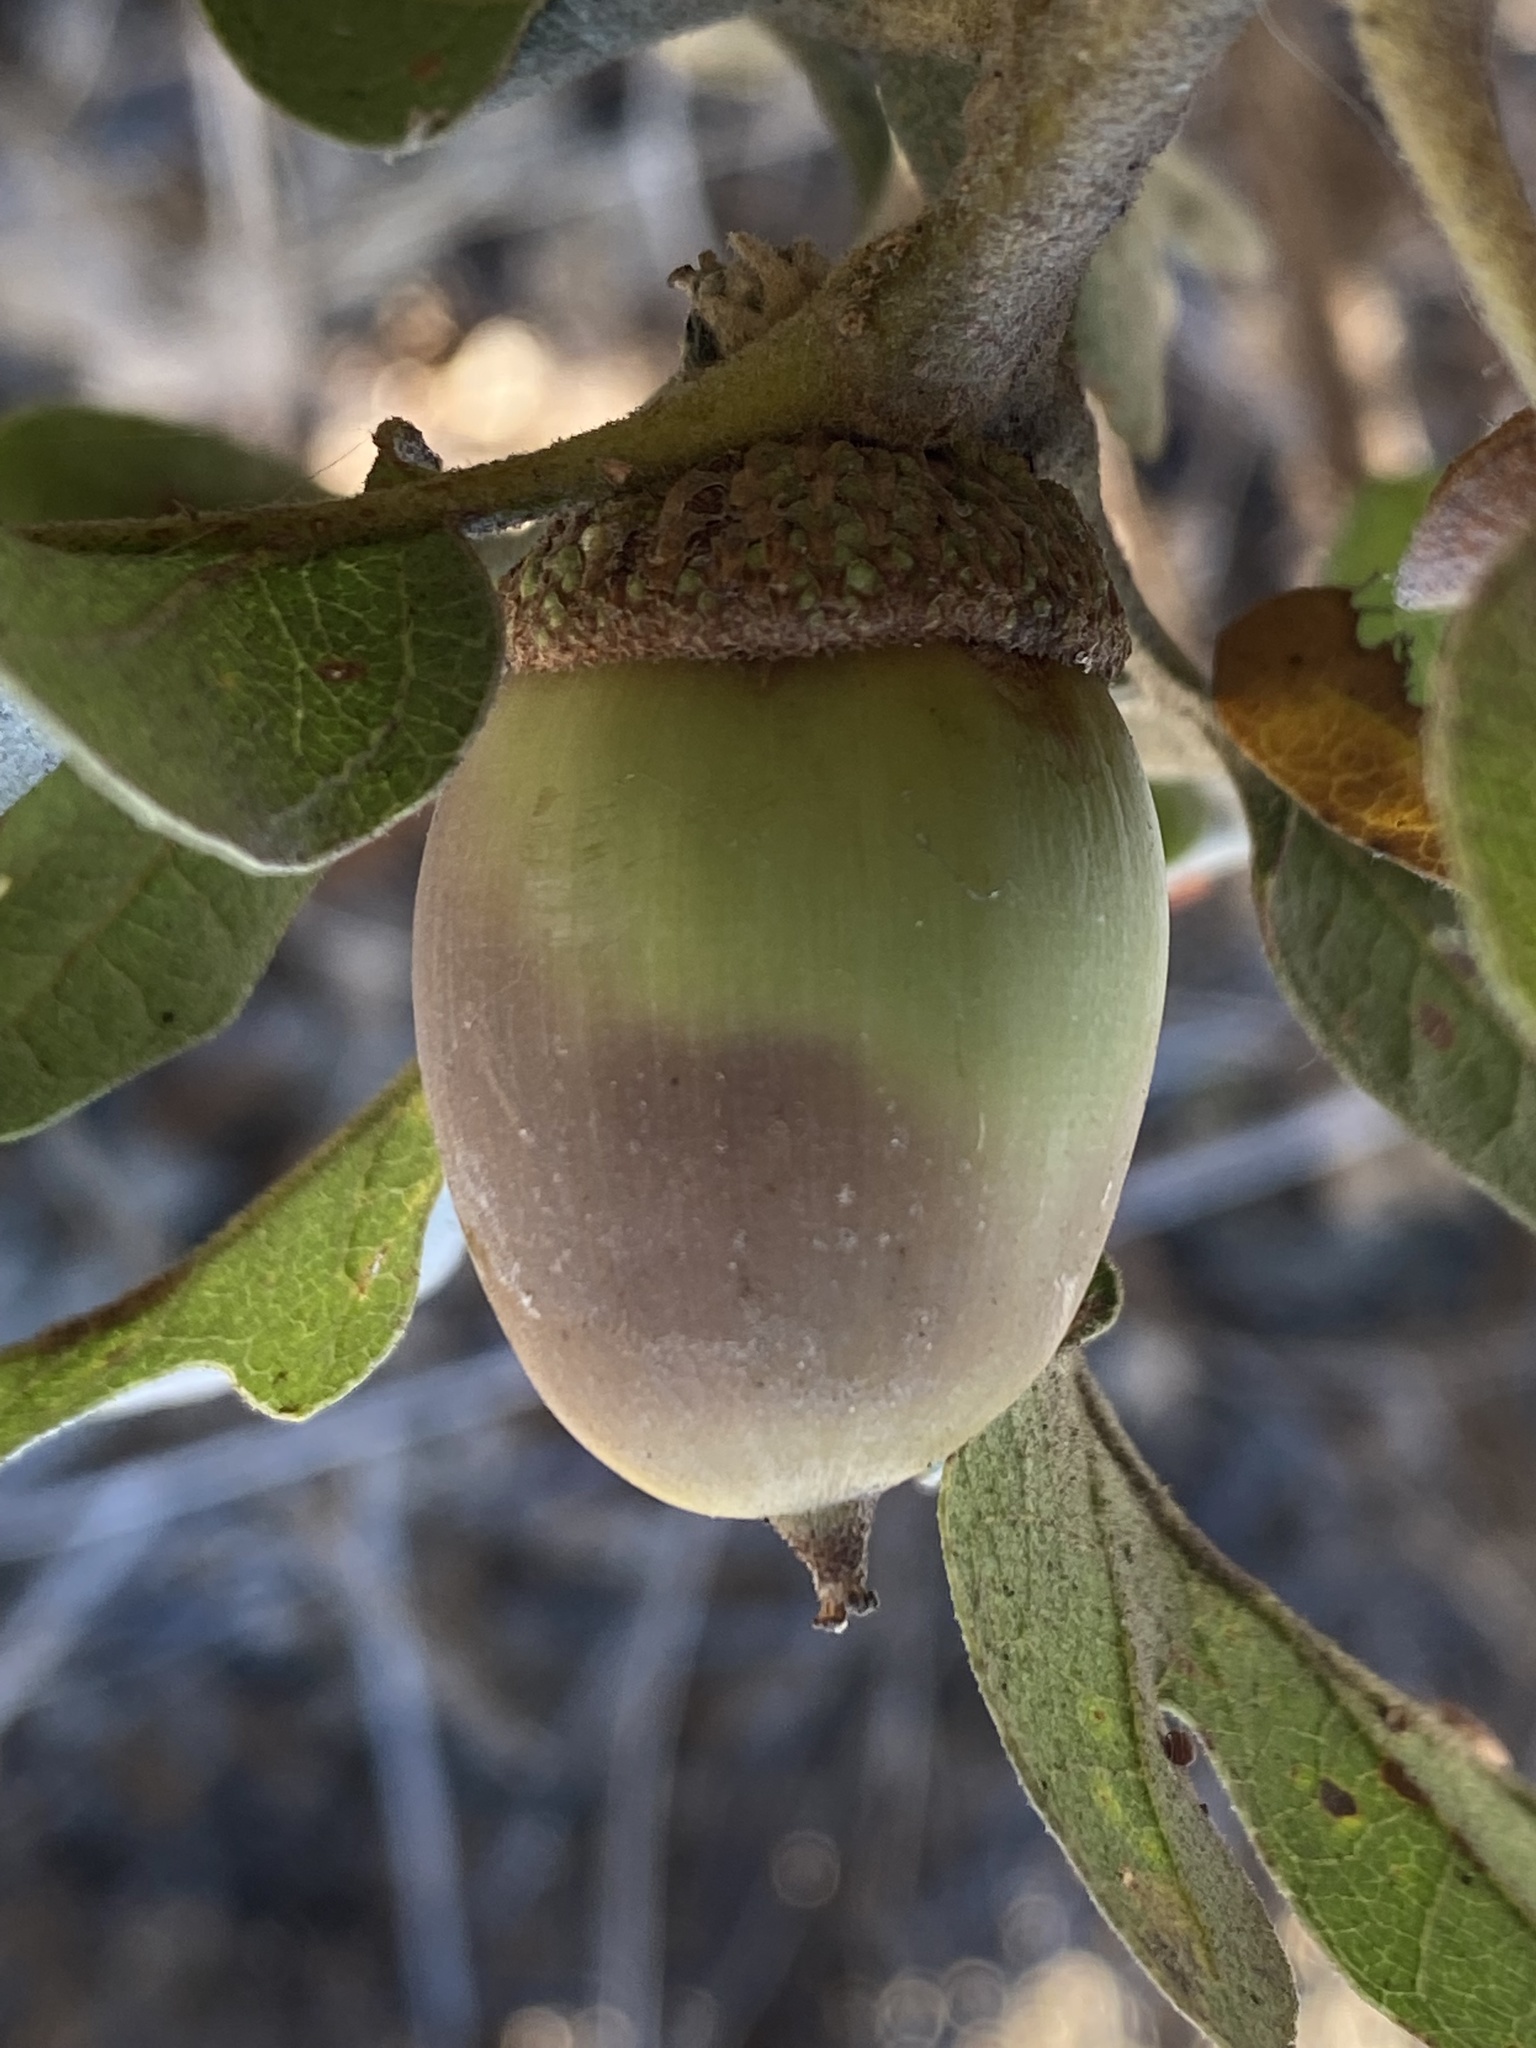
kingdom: Plantae
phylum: Tracheophyta
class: Magnoliopsida
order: Fagales
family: Fagaceae
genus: Quercus
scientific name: Quercus garryana
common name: Garry oak
